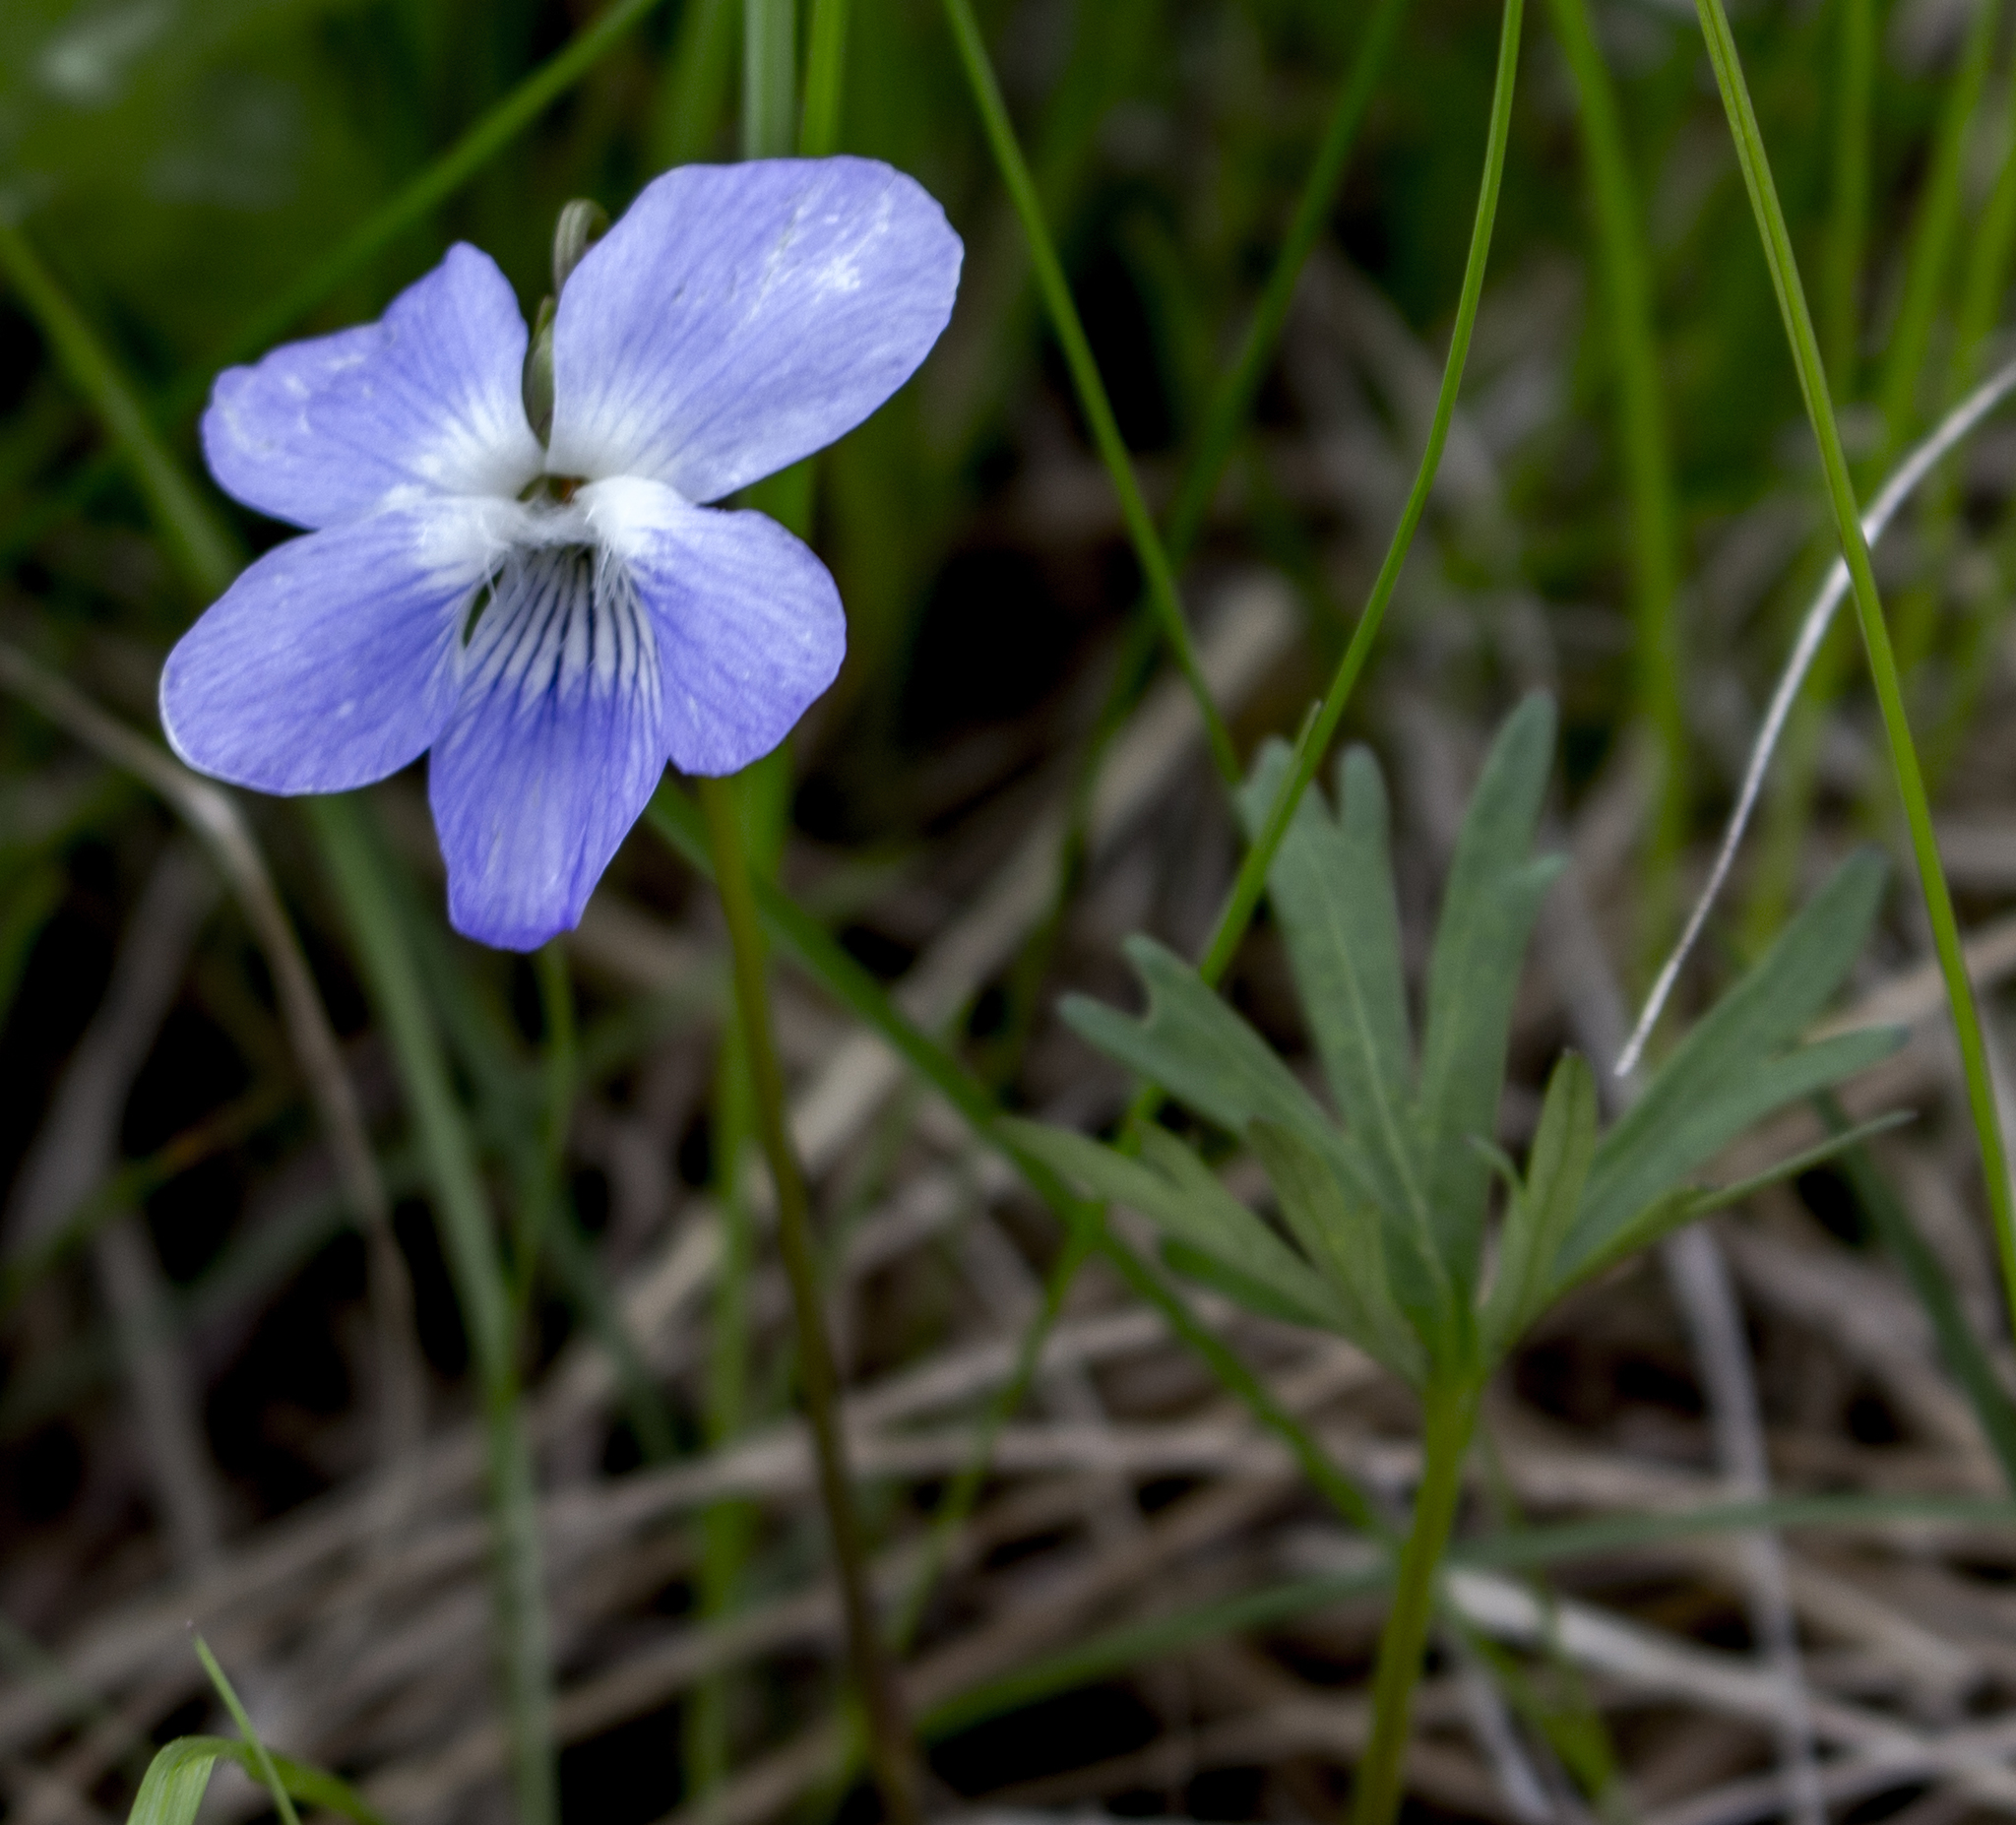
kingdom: Plantae
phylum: Tracheophyta
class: Magnoliopsida
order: Malpighiales
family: Violaceae
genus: Viola
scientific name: Viola pedatifida
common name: Prairie violet
